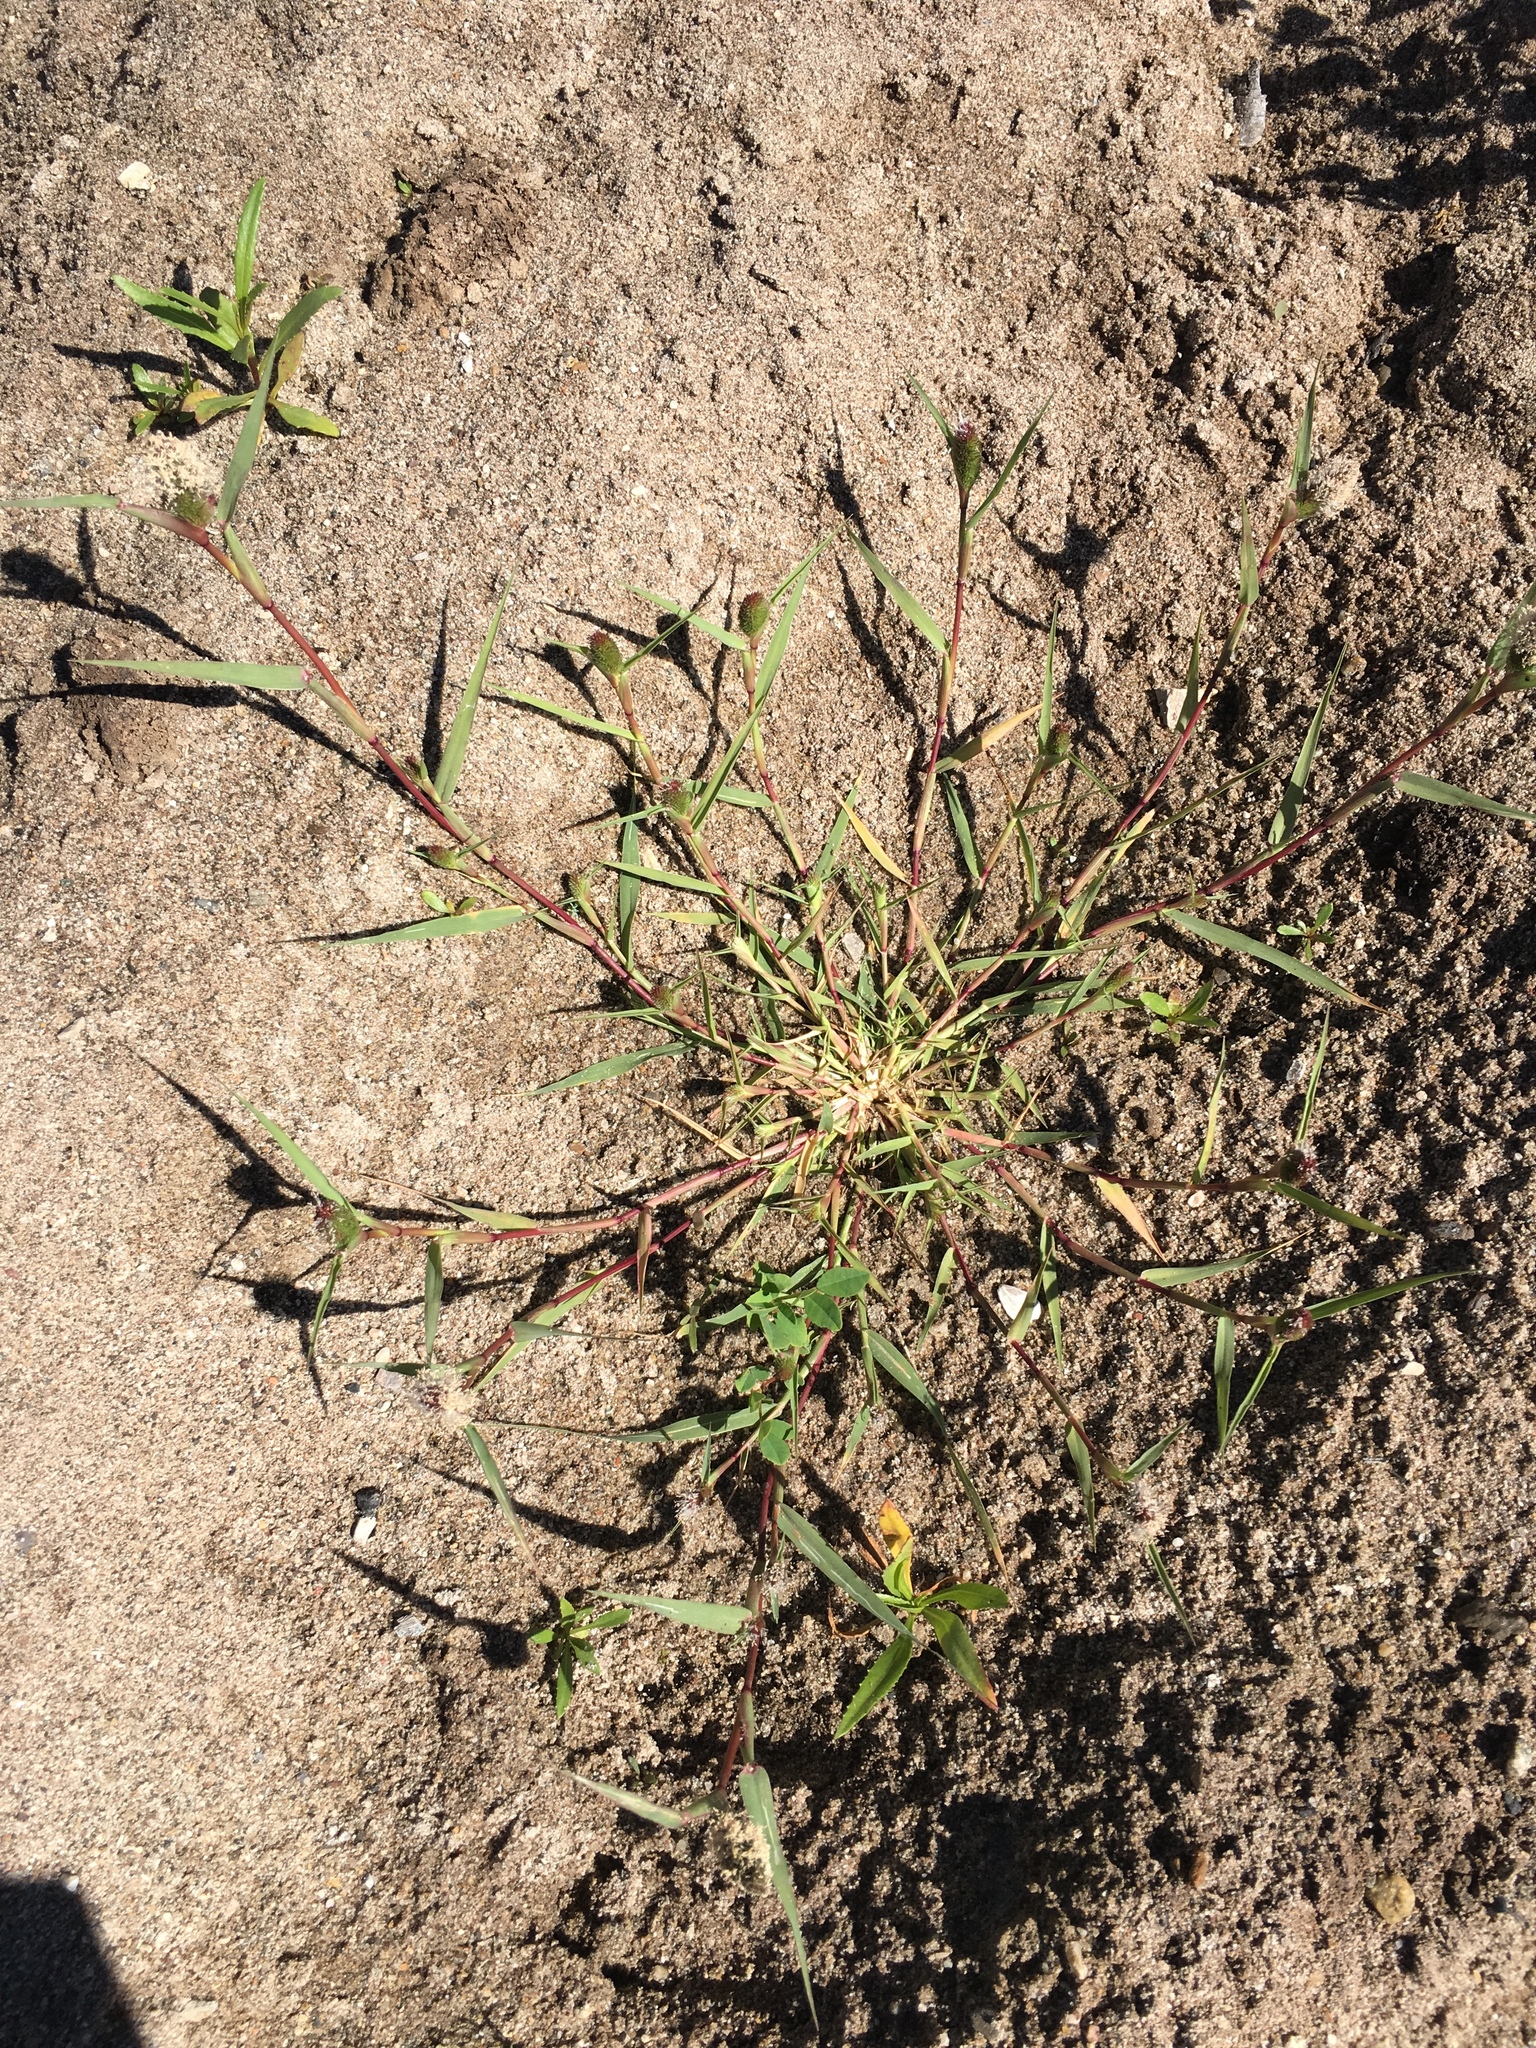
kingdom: Plantae
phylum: Tracheophyta
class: Liliopsida
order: Poales
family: Poaceae
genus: Sporobolus
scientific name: Sporobolus schoenoides
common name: Rush-like timothy
